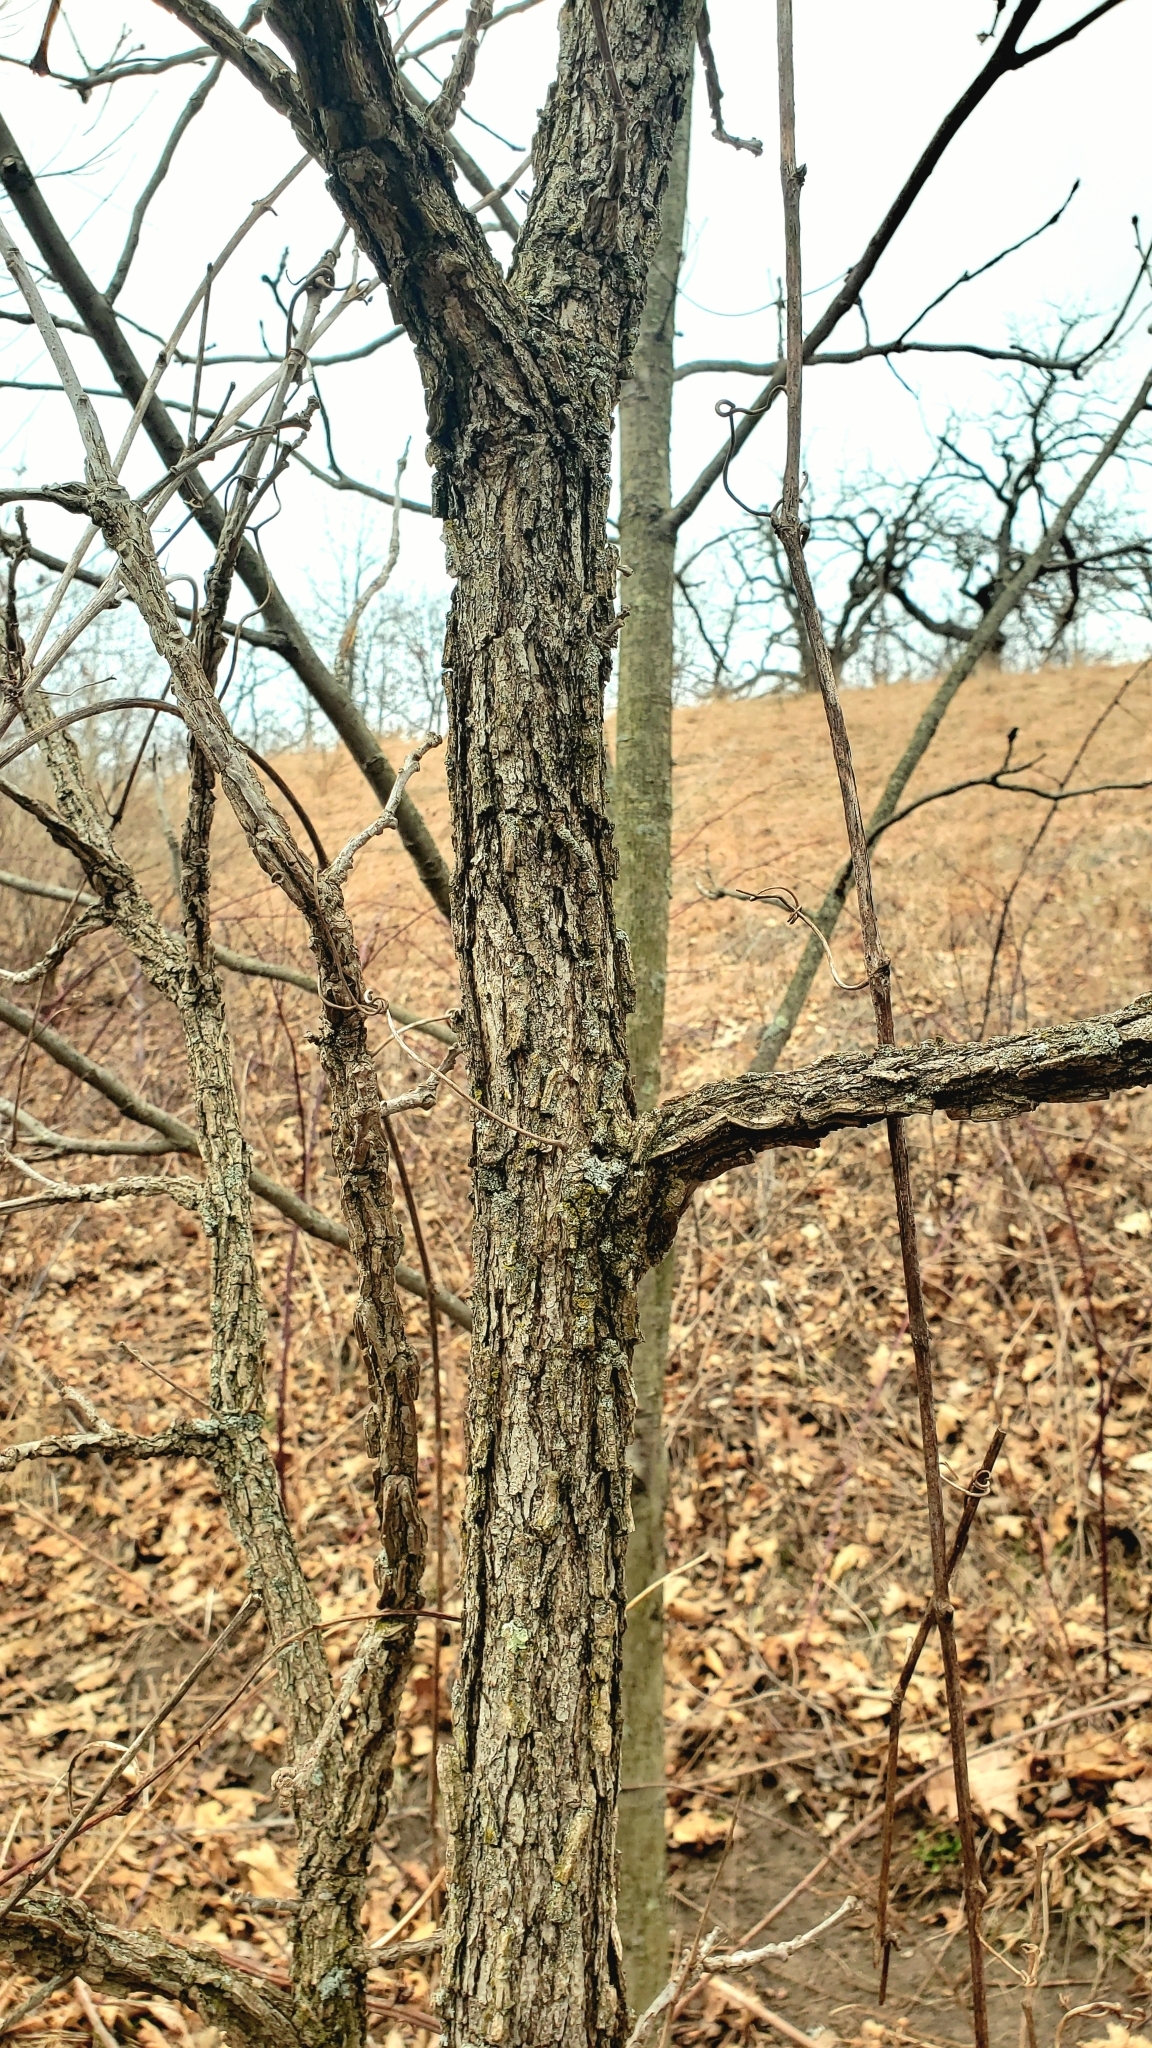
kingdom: Plantae
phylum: Tracheophyta
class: Magnoliopsida
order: Fagales
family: Fagaceae
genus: Quercus
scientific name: Quercus macrocarpa
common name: Bur oak
